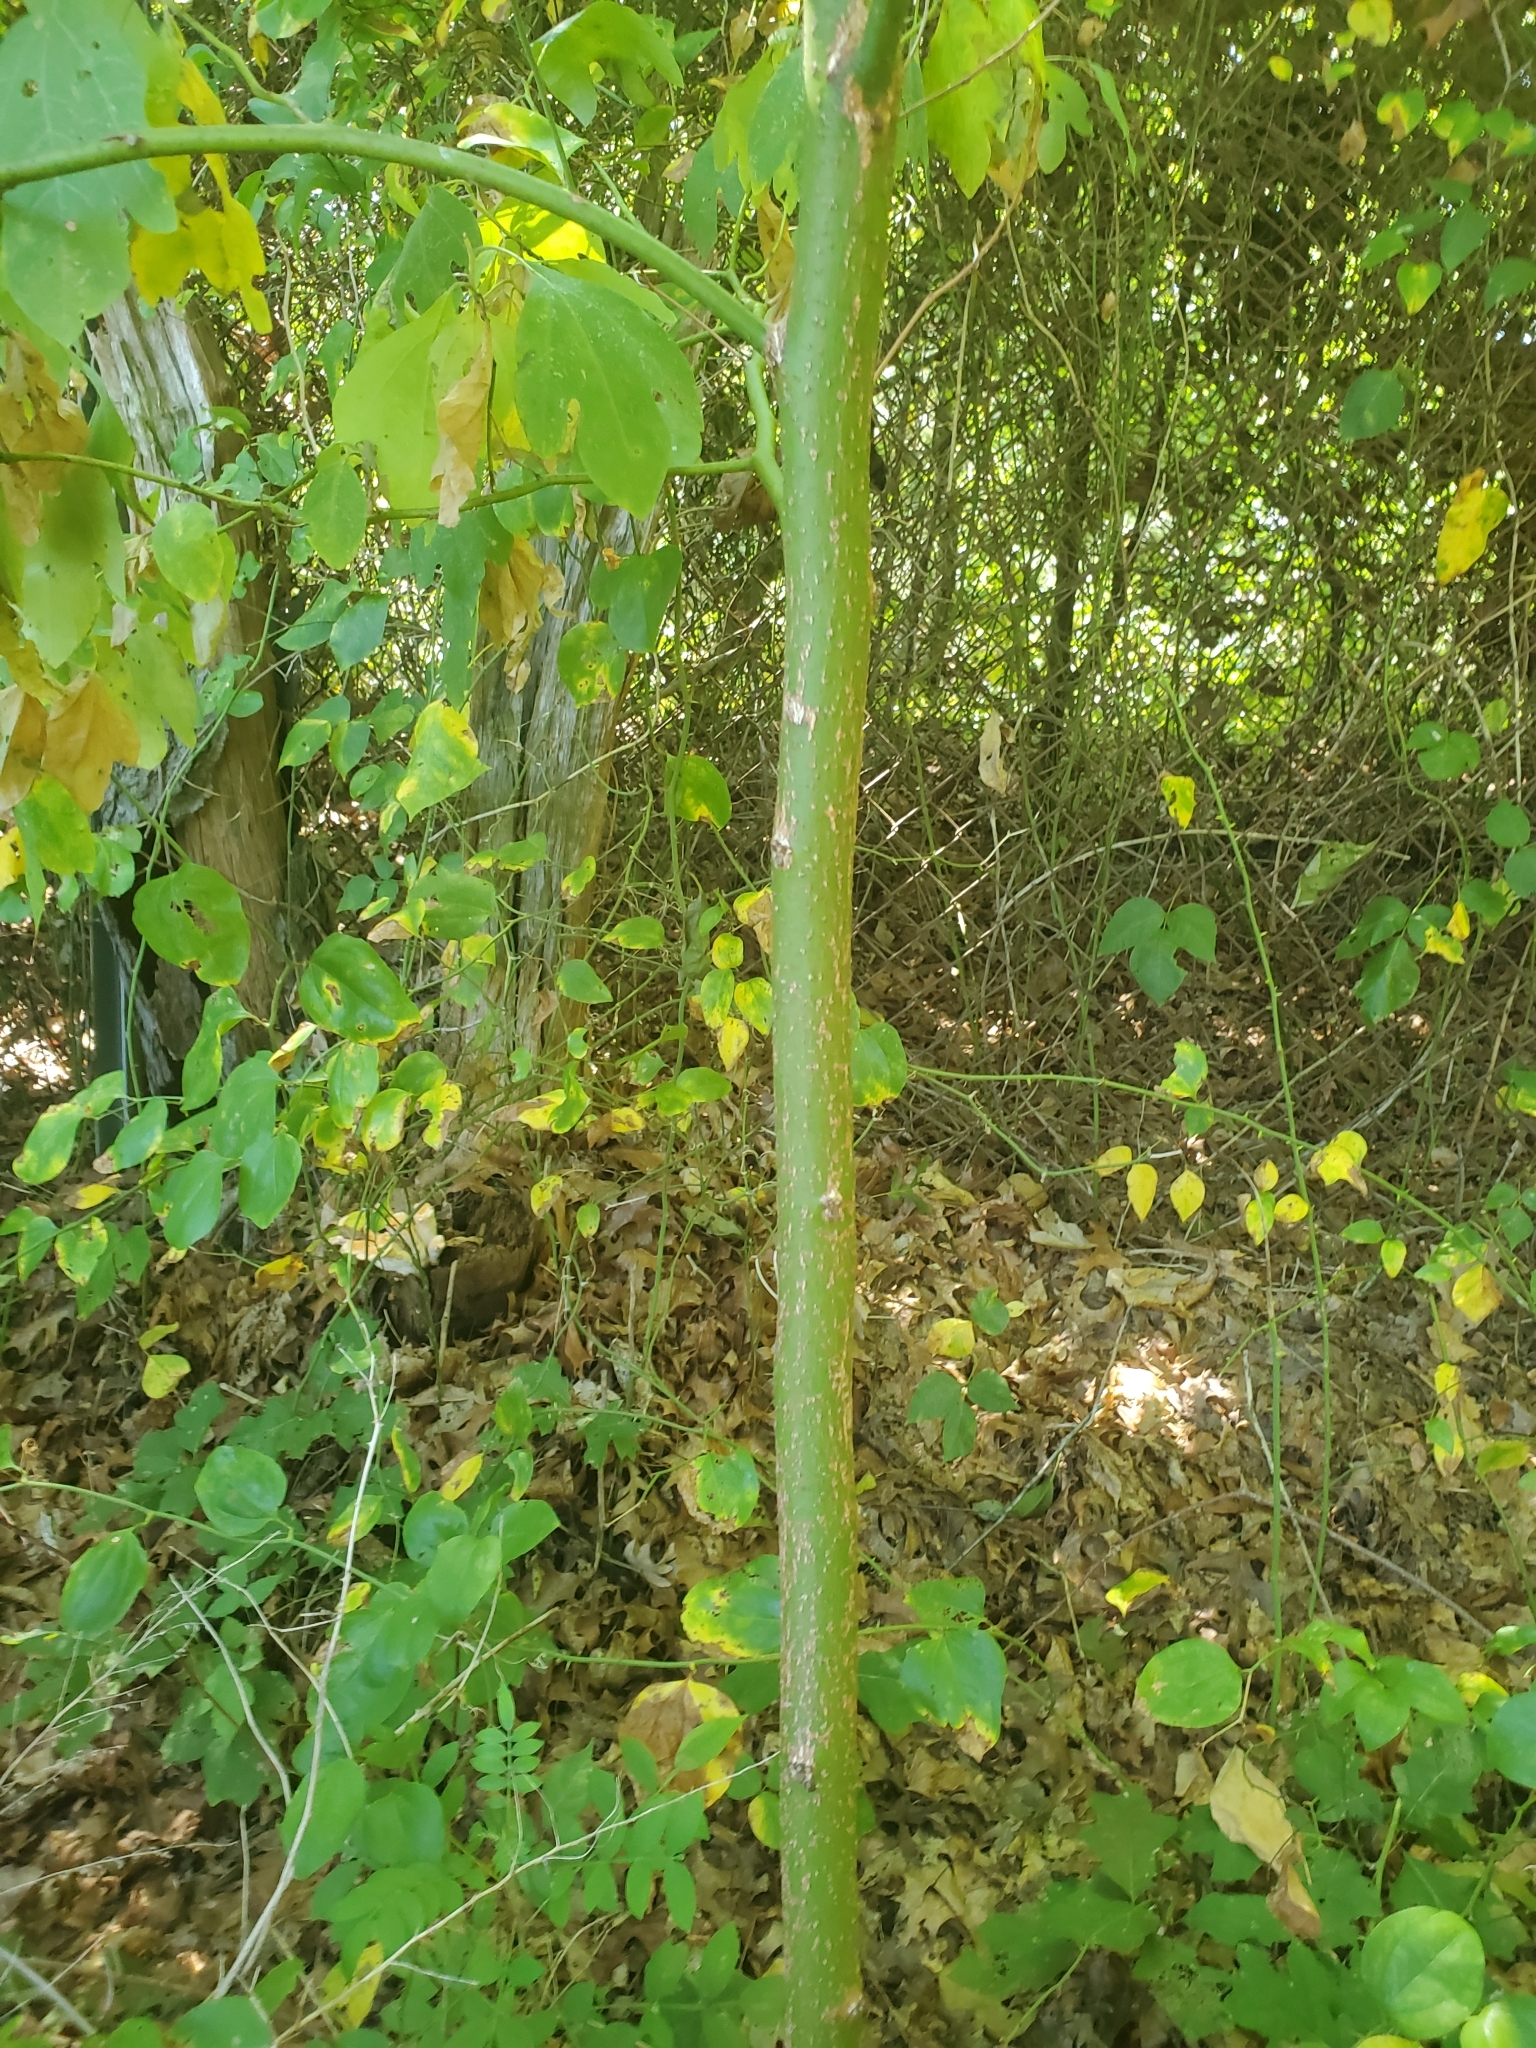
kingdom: Plantae
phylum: Tracheophyta
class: Magnoliopsida
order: Laurales
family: Lauraceae
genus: Sassafras
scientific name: Sassafras albidum
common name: Sassafras
